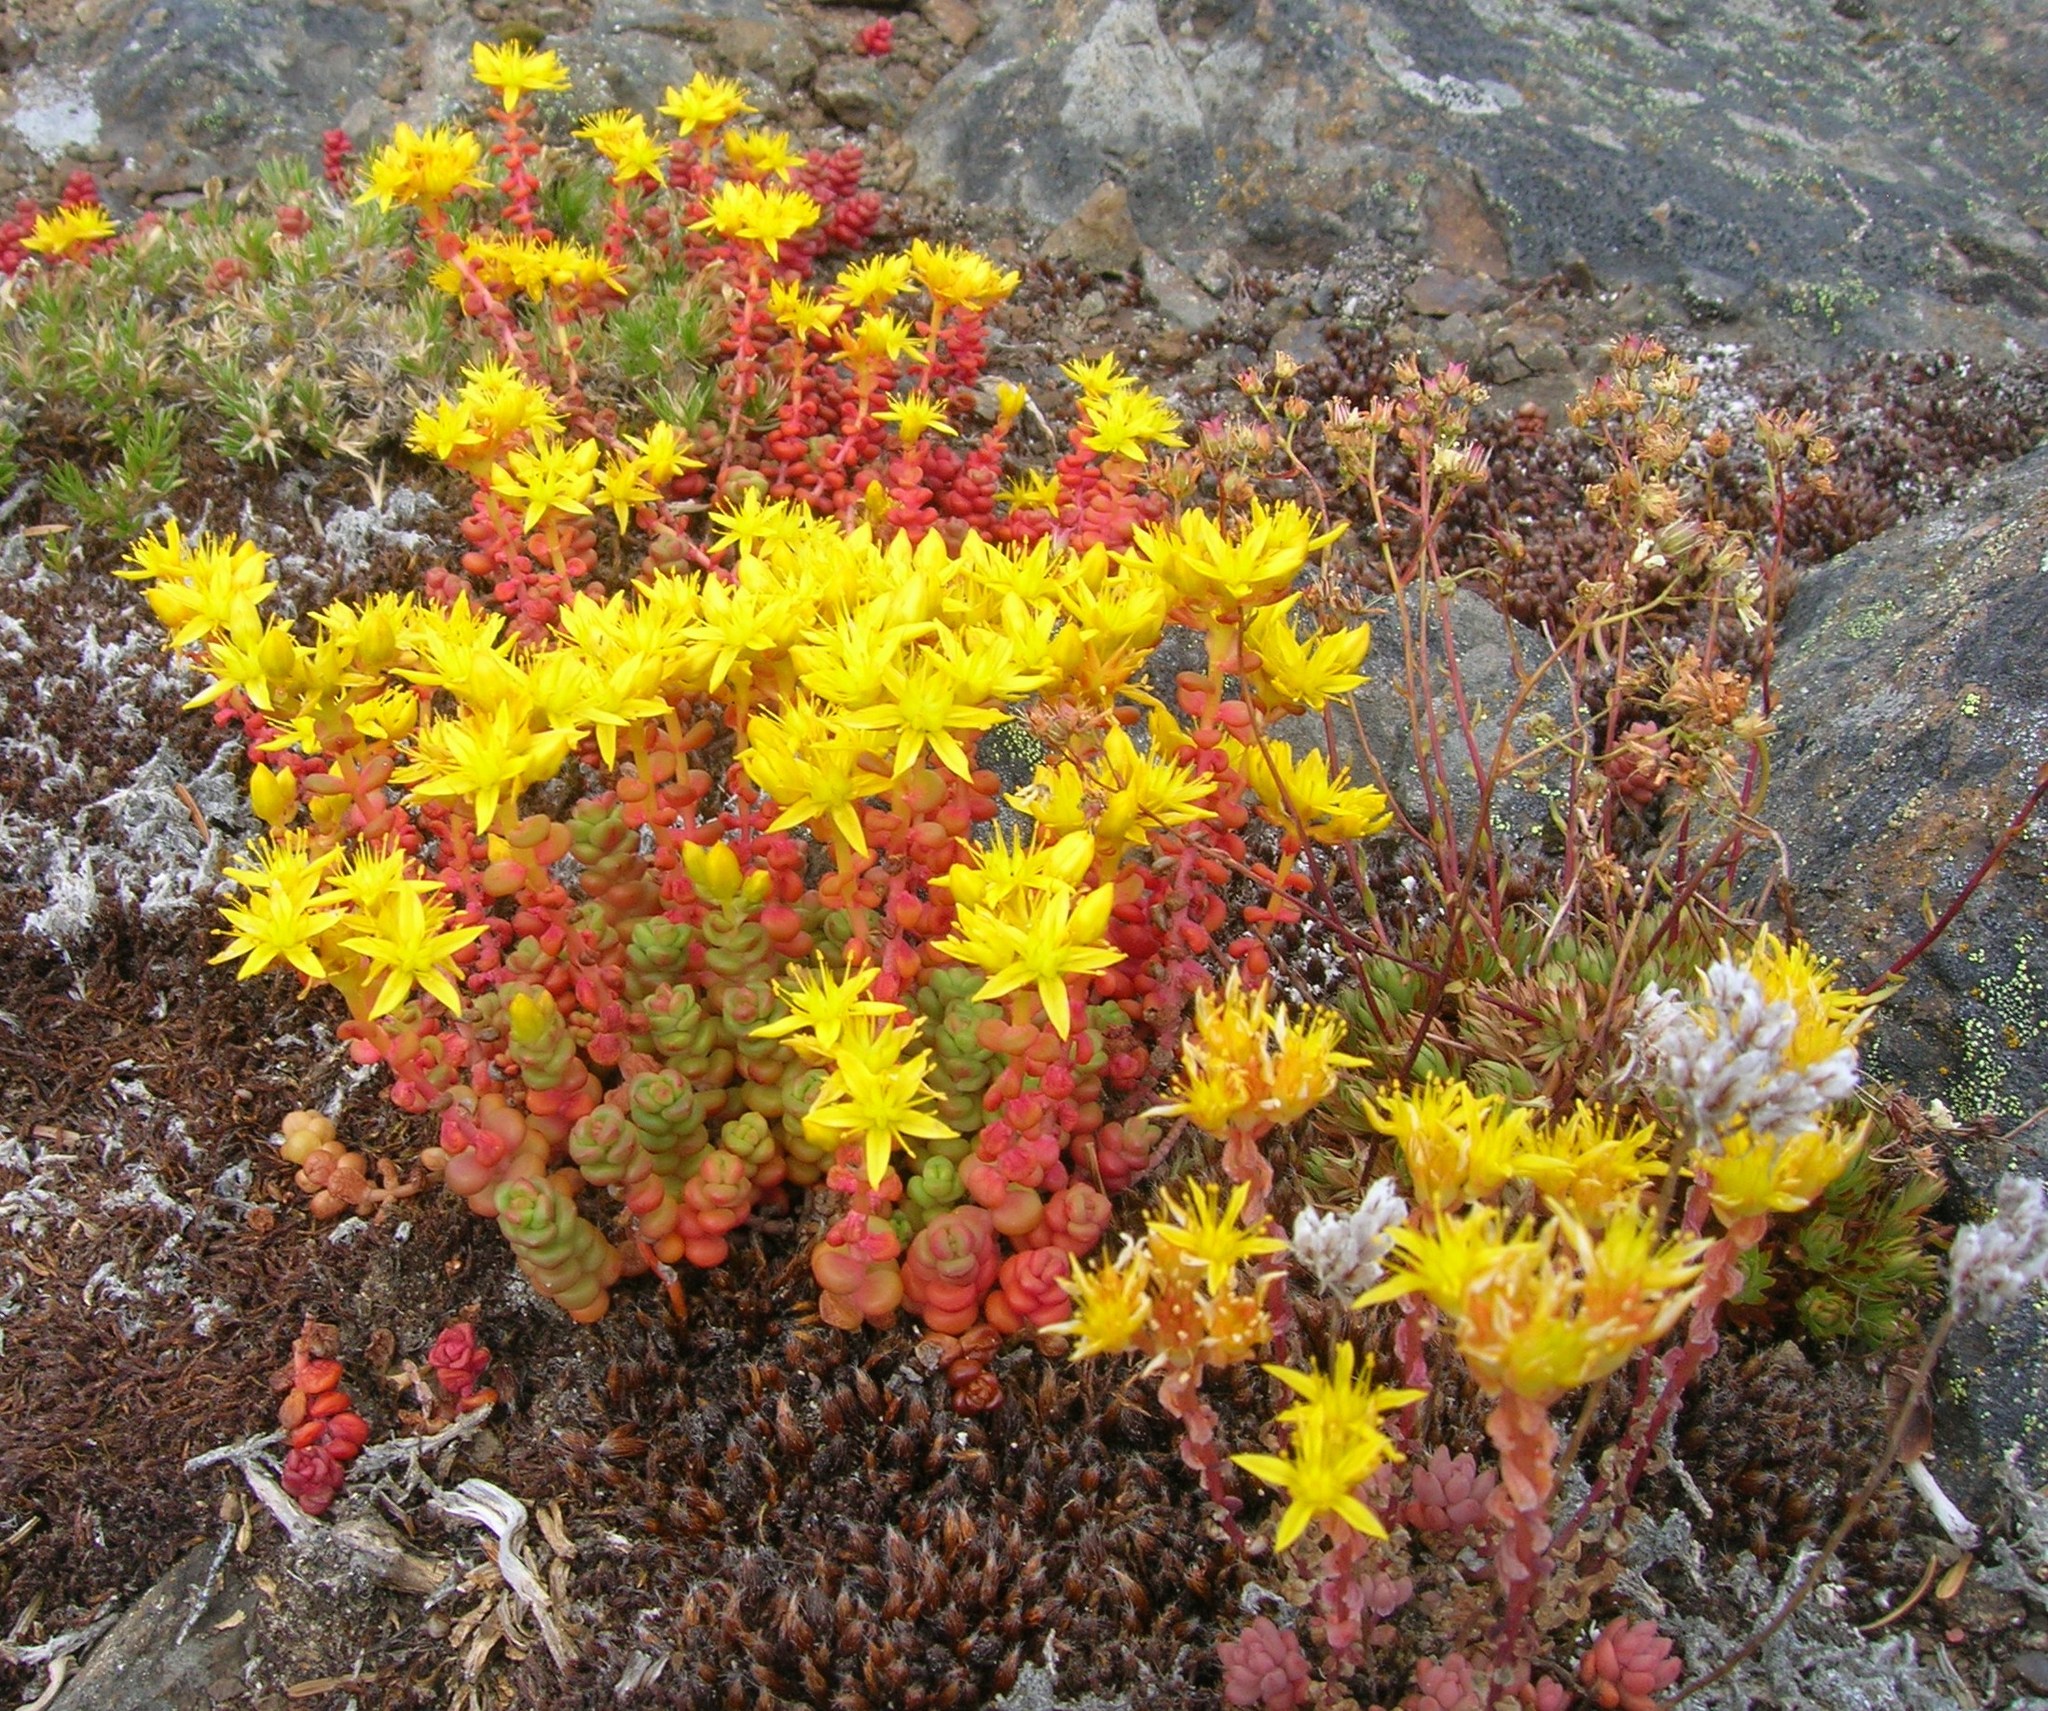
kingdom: Plantae
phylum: Tracheophyta
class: Magnoliopsida
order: Saxifragales
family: Crassulaceae
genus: Sedum
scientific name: Sedum divergens
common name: Cascade stonecrop
